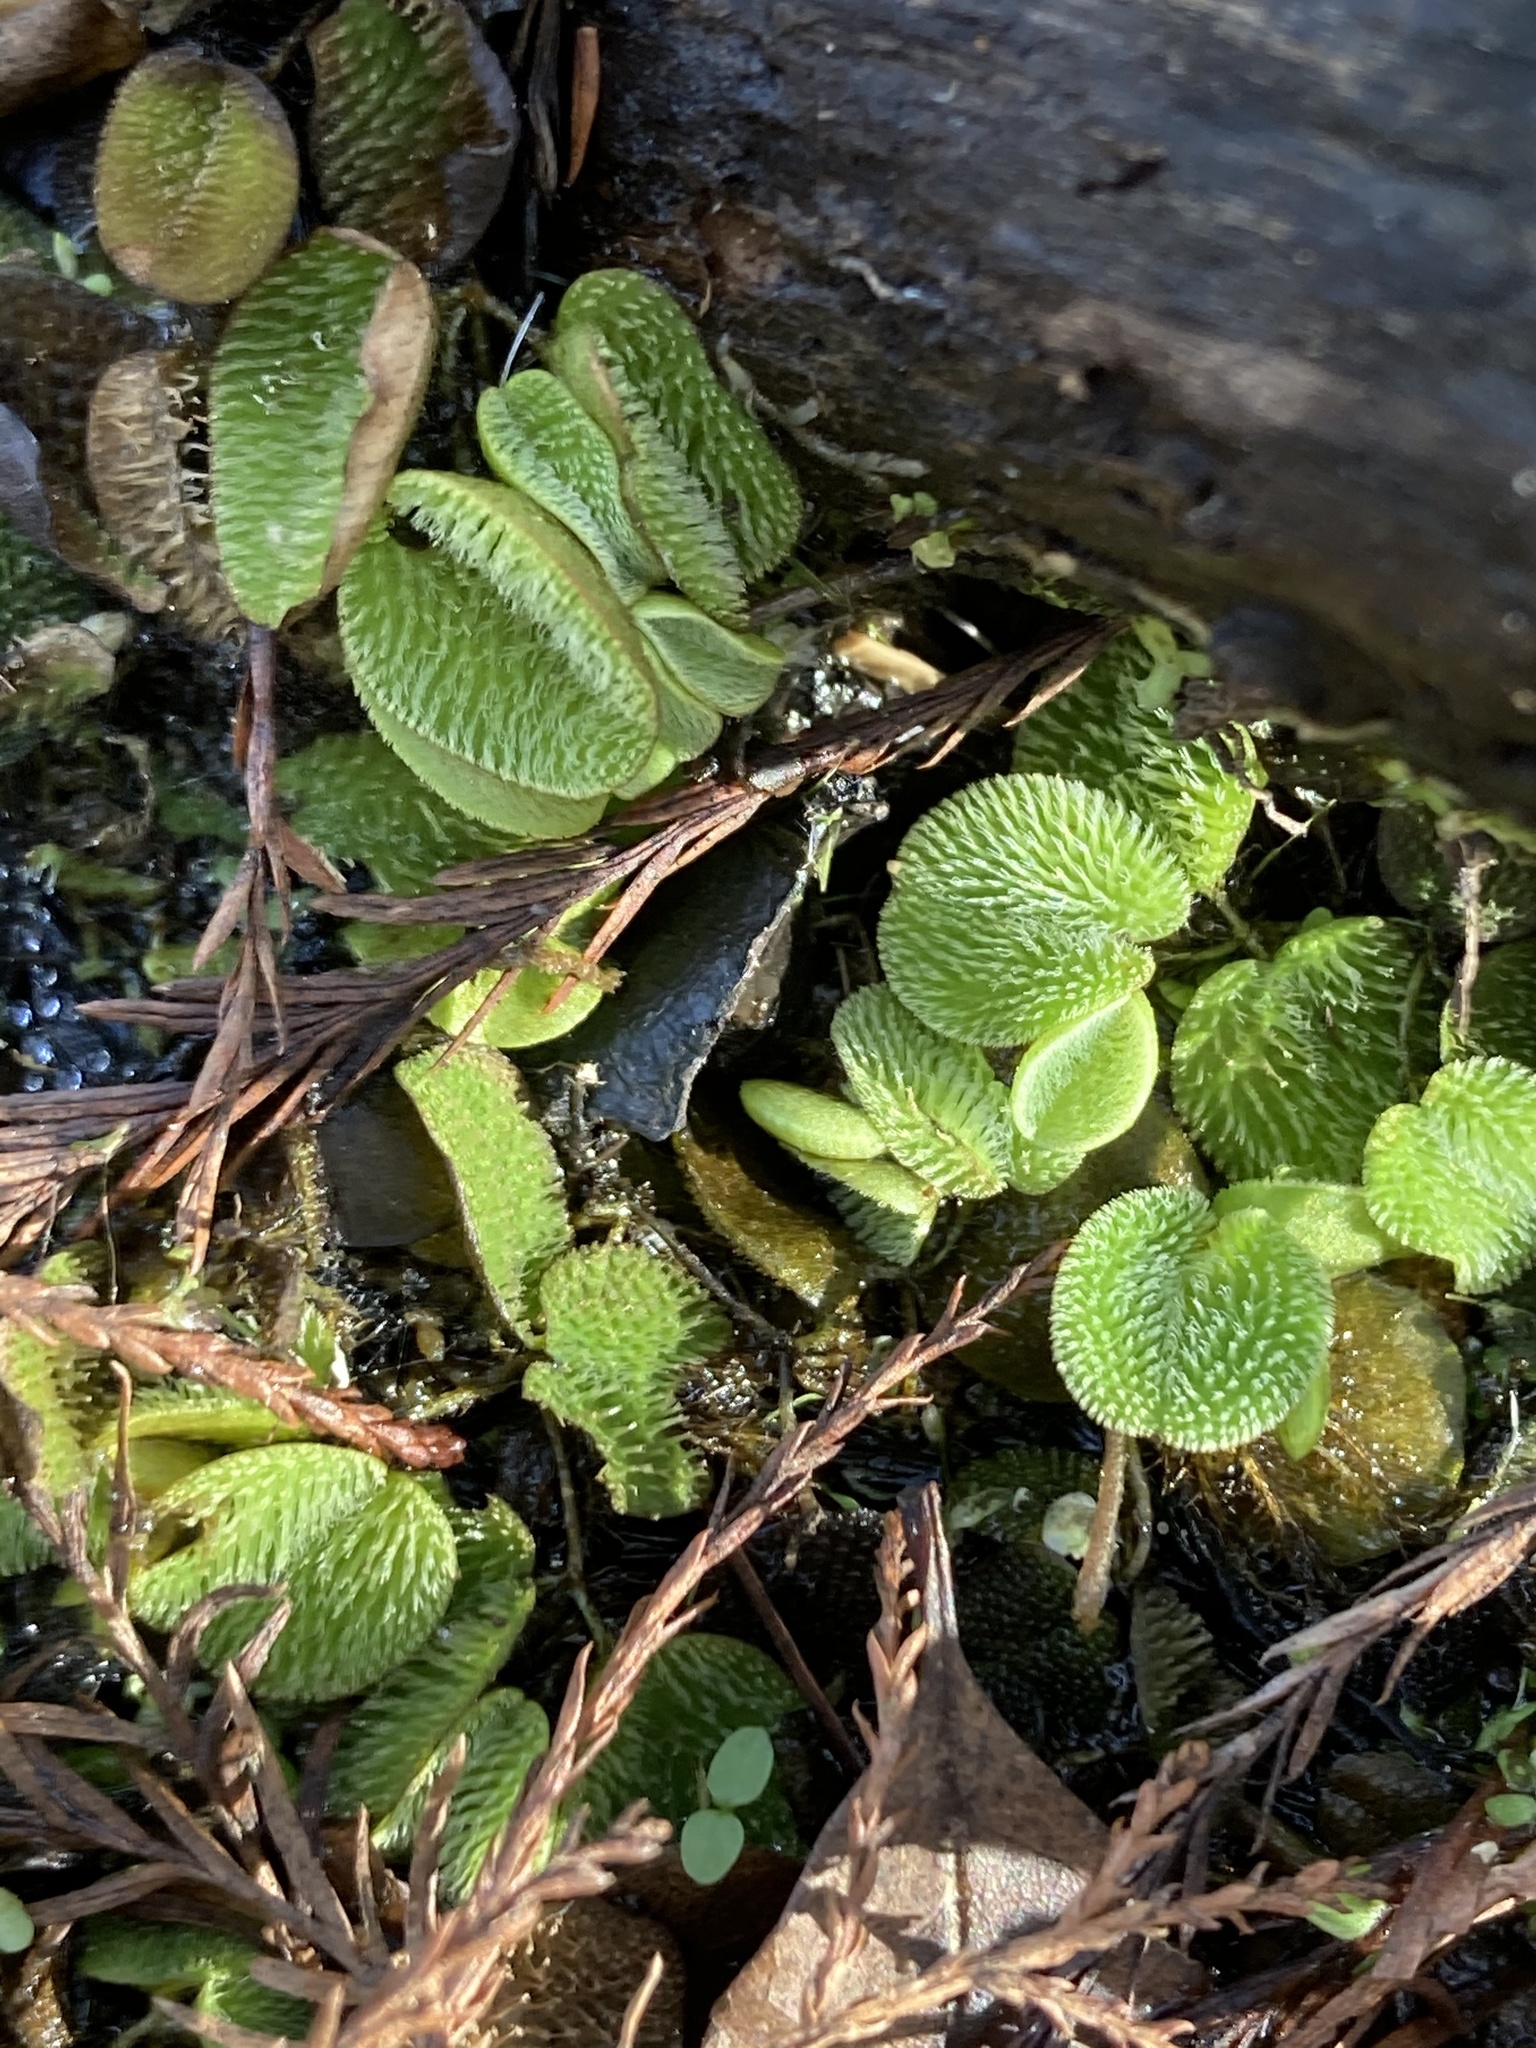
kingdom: Plantae
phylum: Tracheophyta
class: Polypodiopsida
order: Salviniales
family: Salviniaceae
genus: Salvinia
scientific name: Salvinia minima
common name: Water spangles
